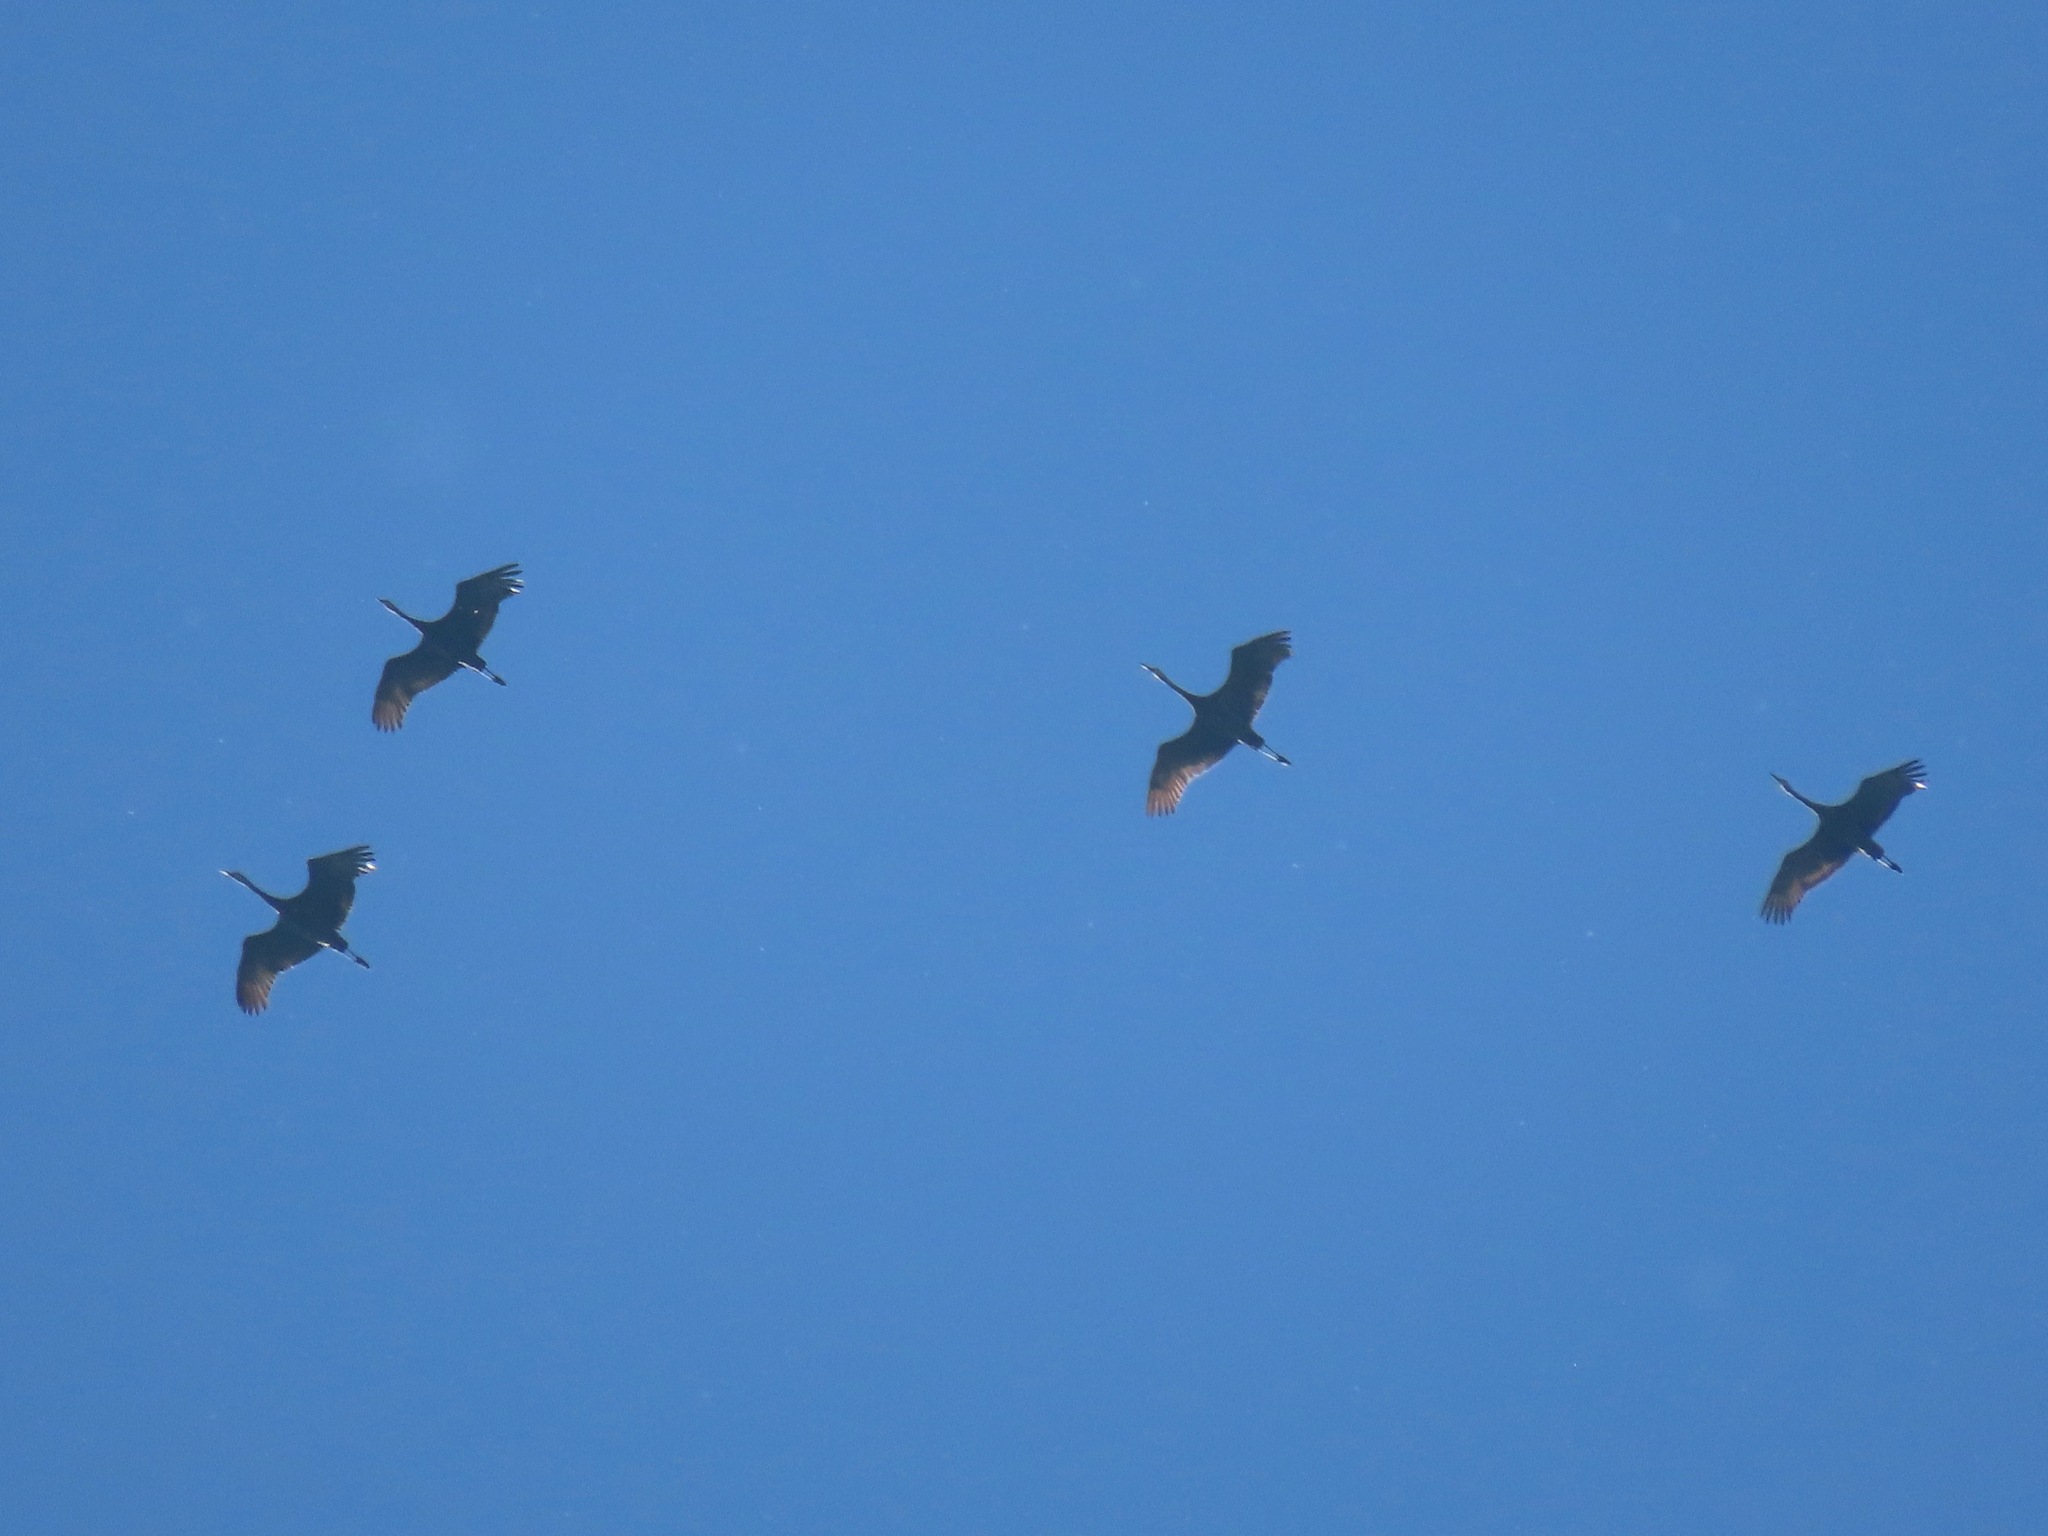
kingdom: Animalia
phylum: Chordata
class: Aves
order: Gruiformes
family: Gruidae
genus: Grus
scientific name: Grus canadensis
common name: Sandhill crane
